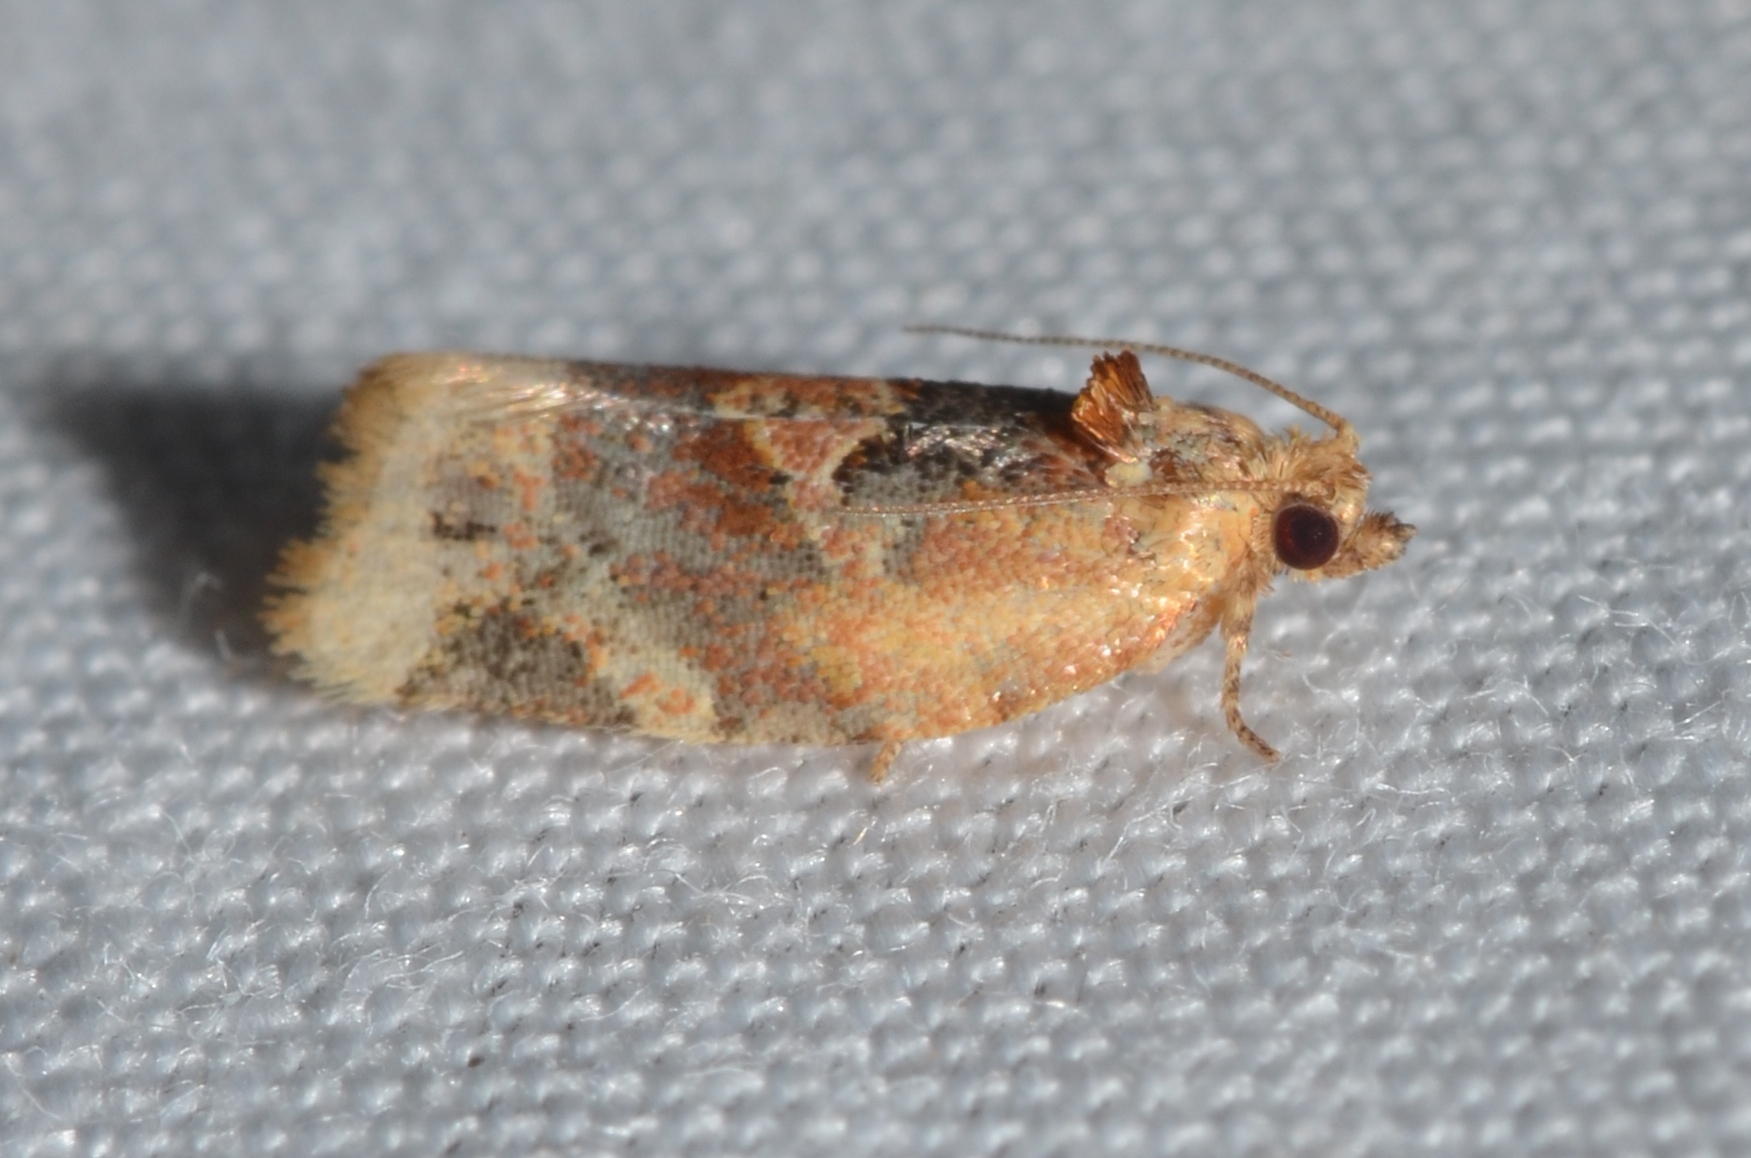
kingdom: Animalia
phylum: Arthropoda
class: Insecta
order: Lepidoptera
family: Tortricidae
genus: Argyrotaenia
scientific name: Argyrotaenia velutinana
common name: Red-banded leafroller moth
